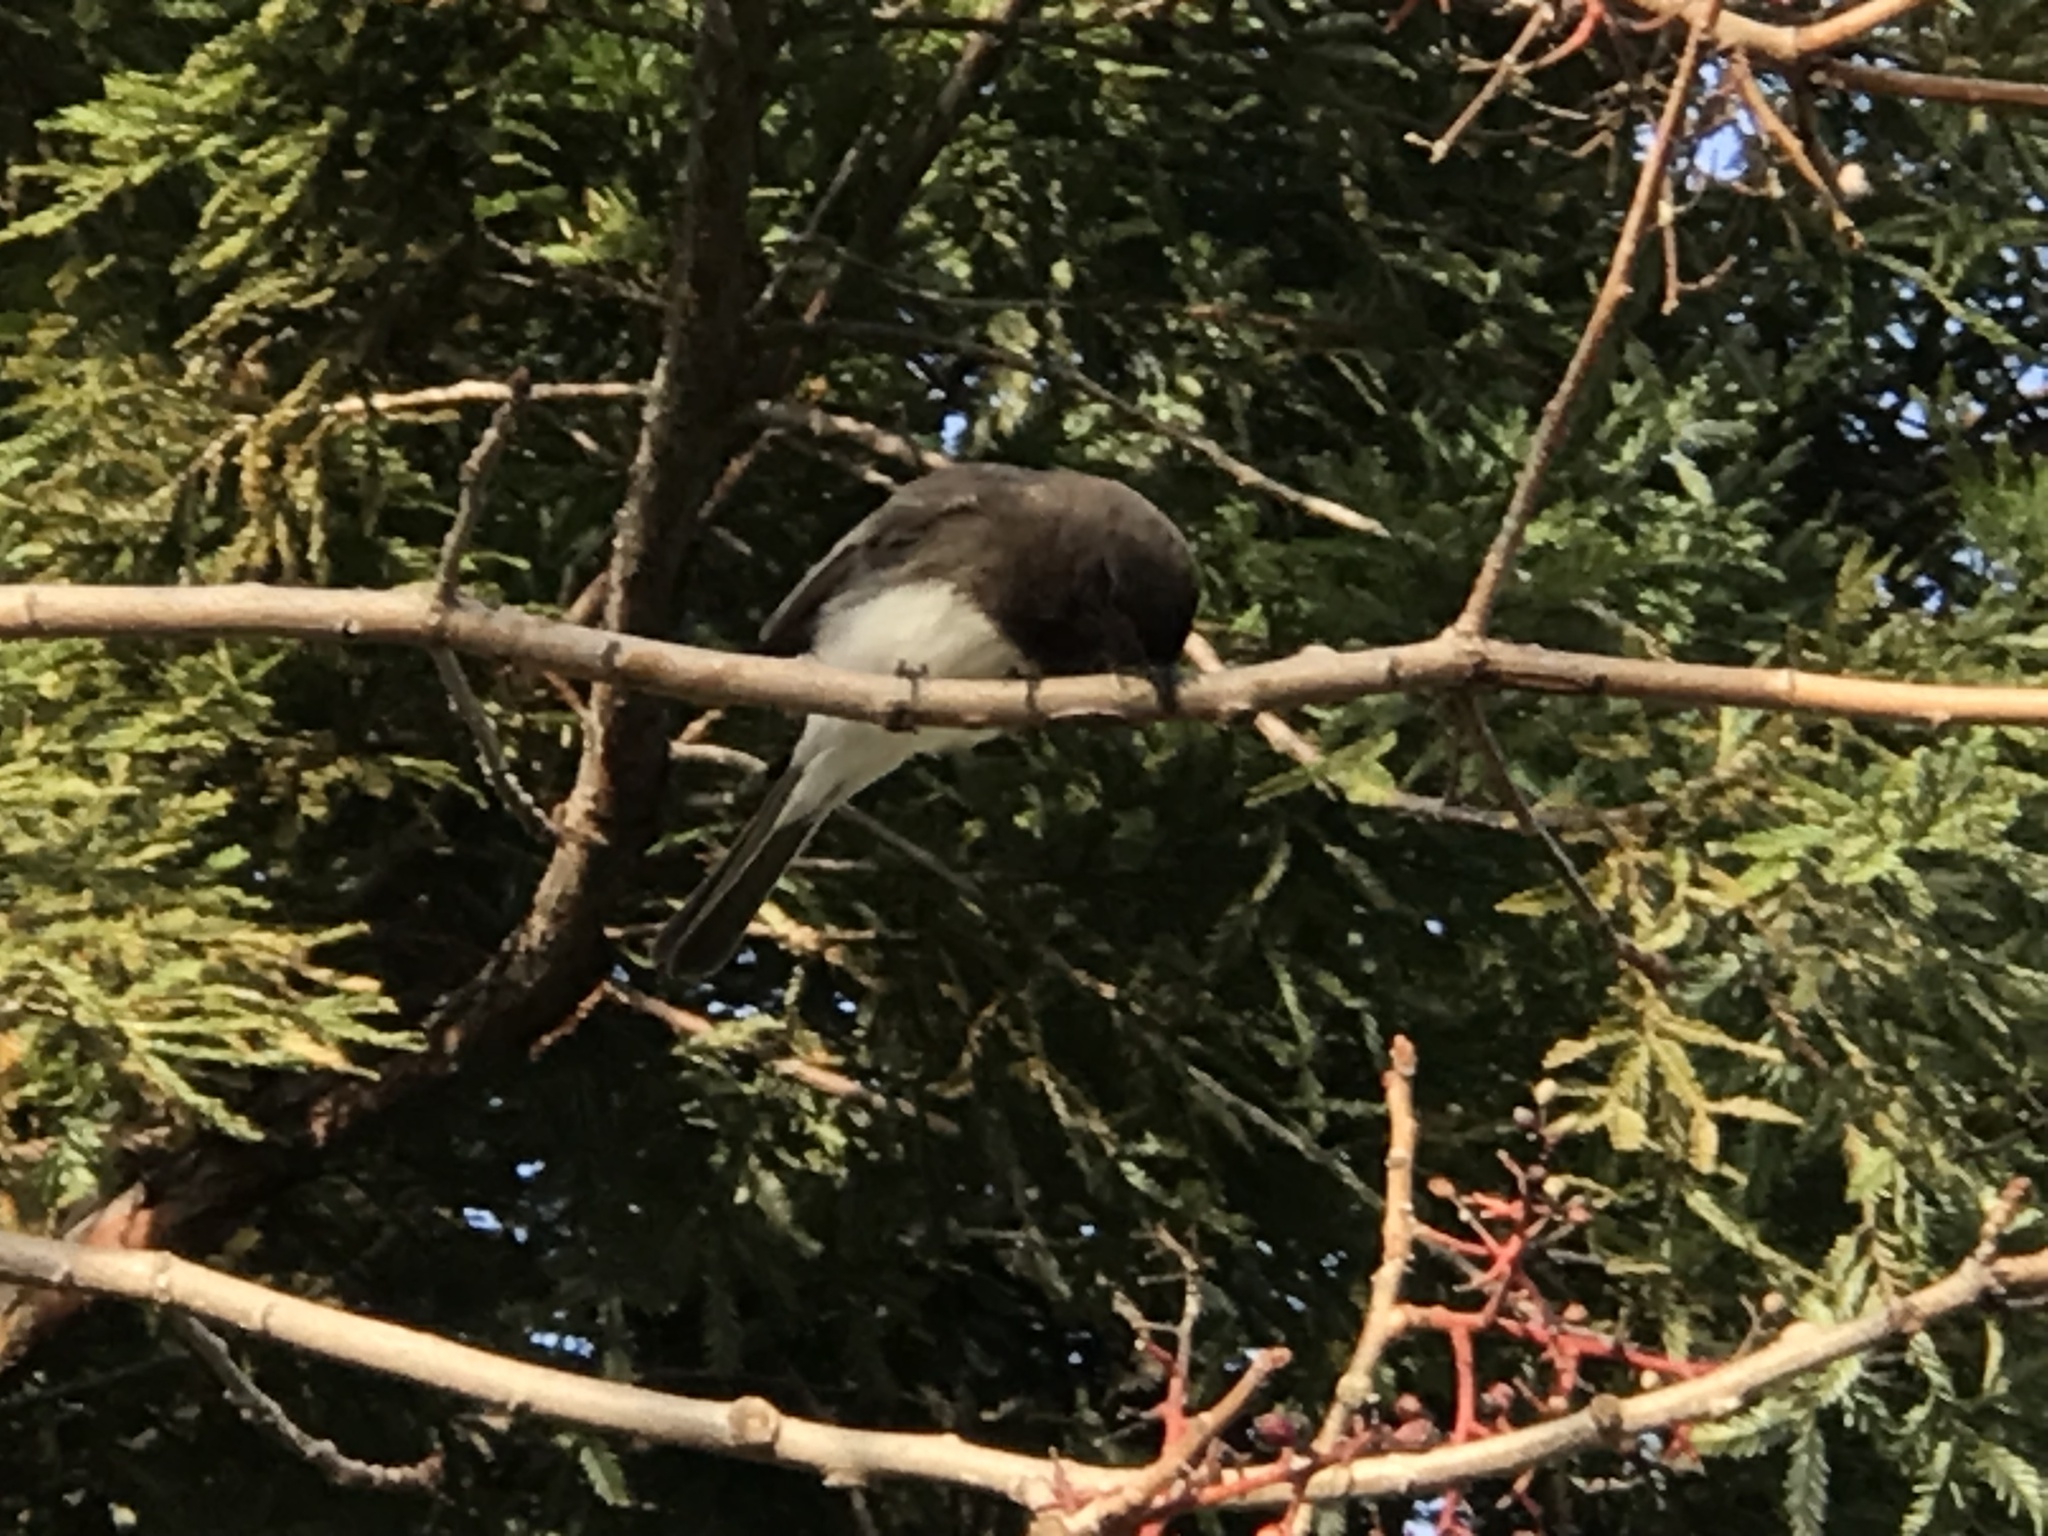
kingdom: Animalia
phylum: Chordata
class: Aves
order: Passeriformes
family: Tyrannidae
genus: Sayornis
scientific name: Sayornis nigricans
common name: Black phoebe
